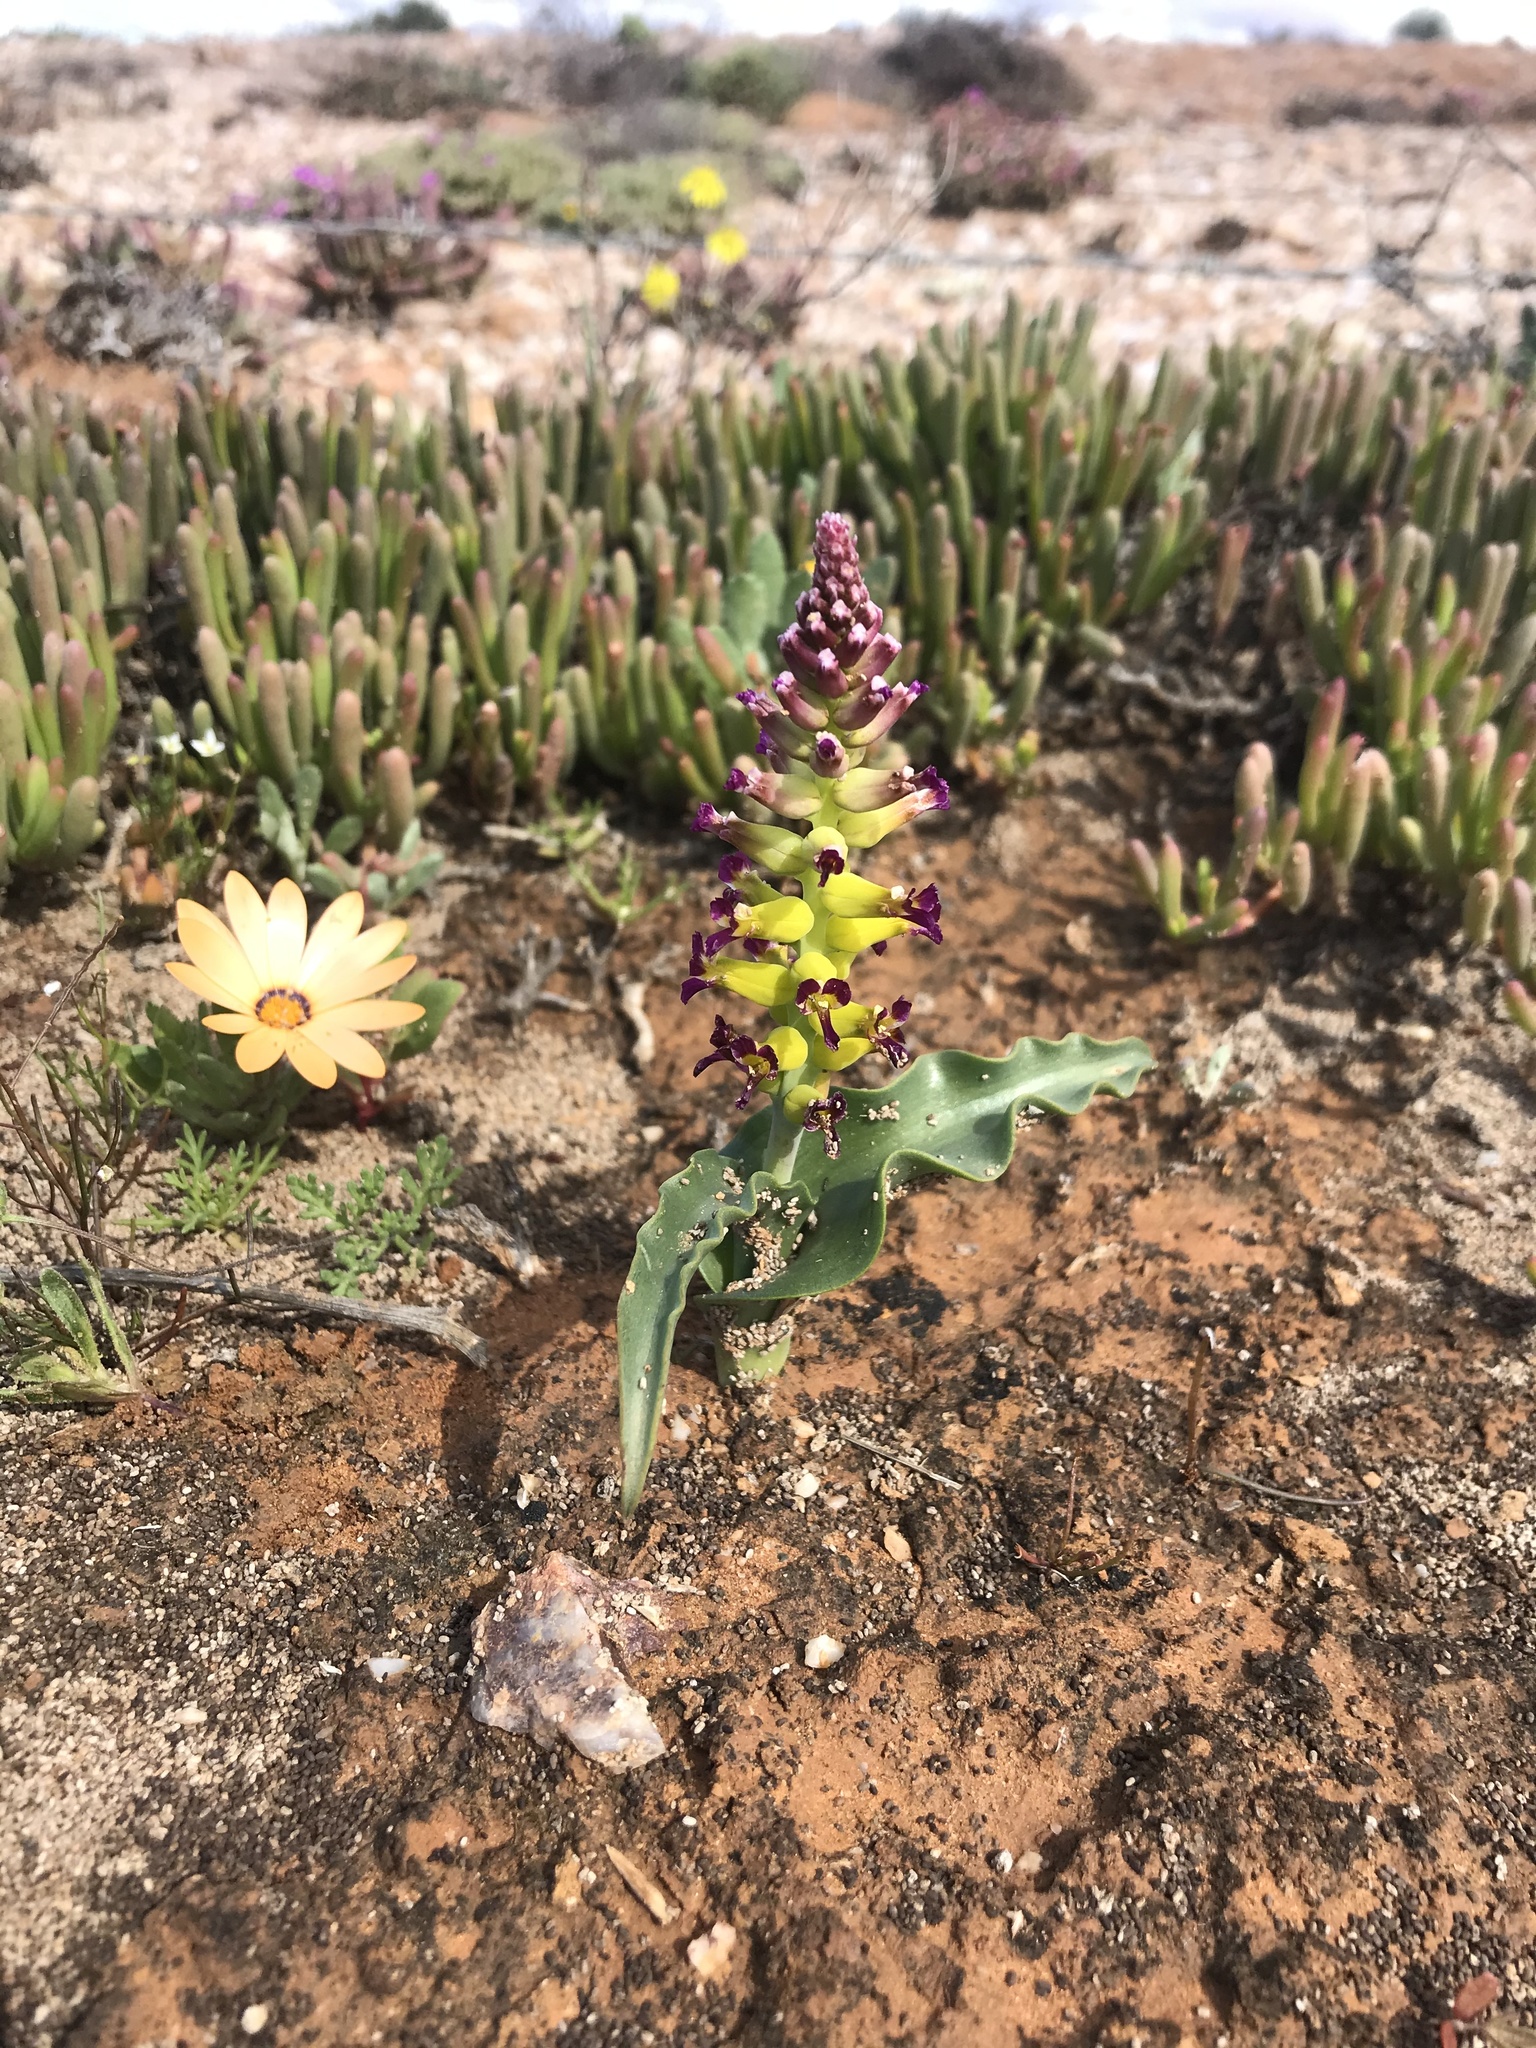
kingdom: Plantae
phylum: Tracheophyta
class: Liliopsida
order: Asparagales
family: Asparagaceae
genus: Lachenalia
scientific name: Lachenalia framesii
